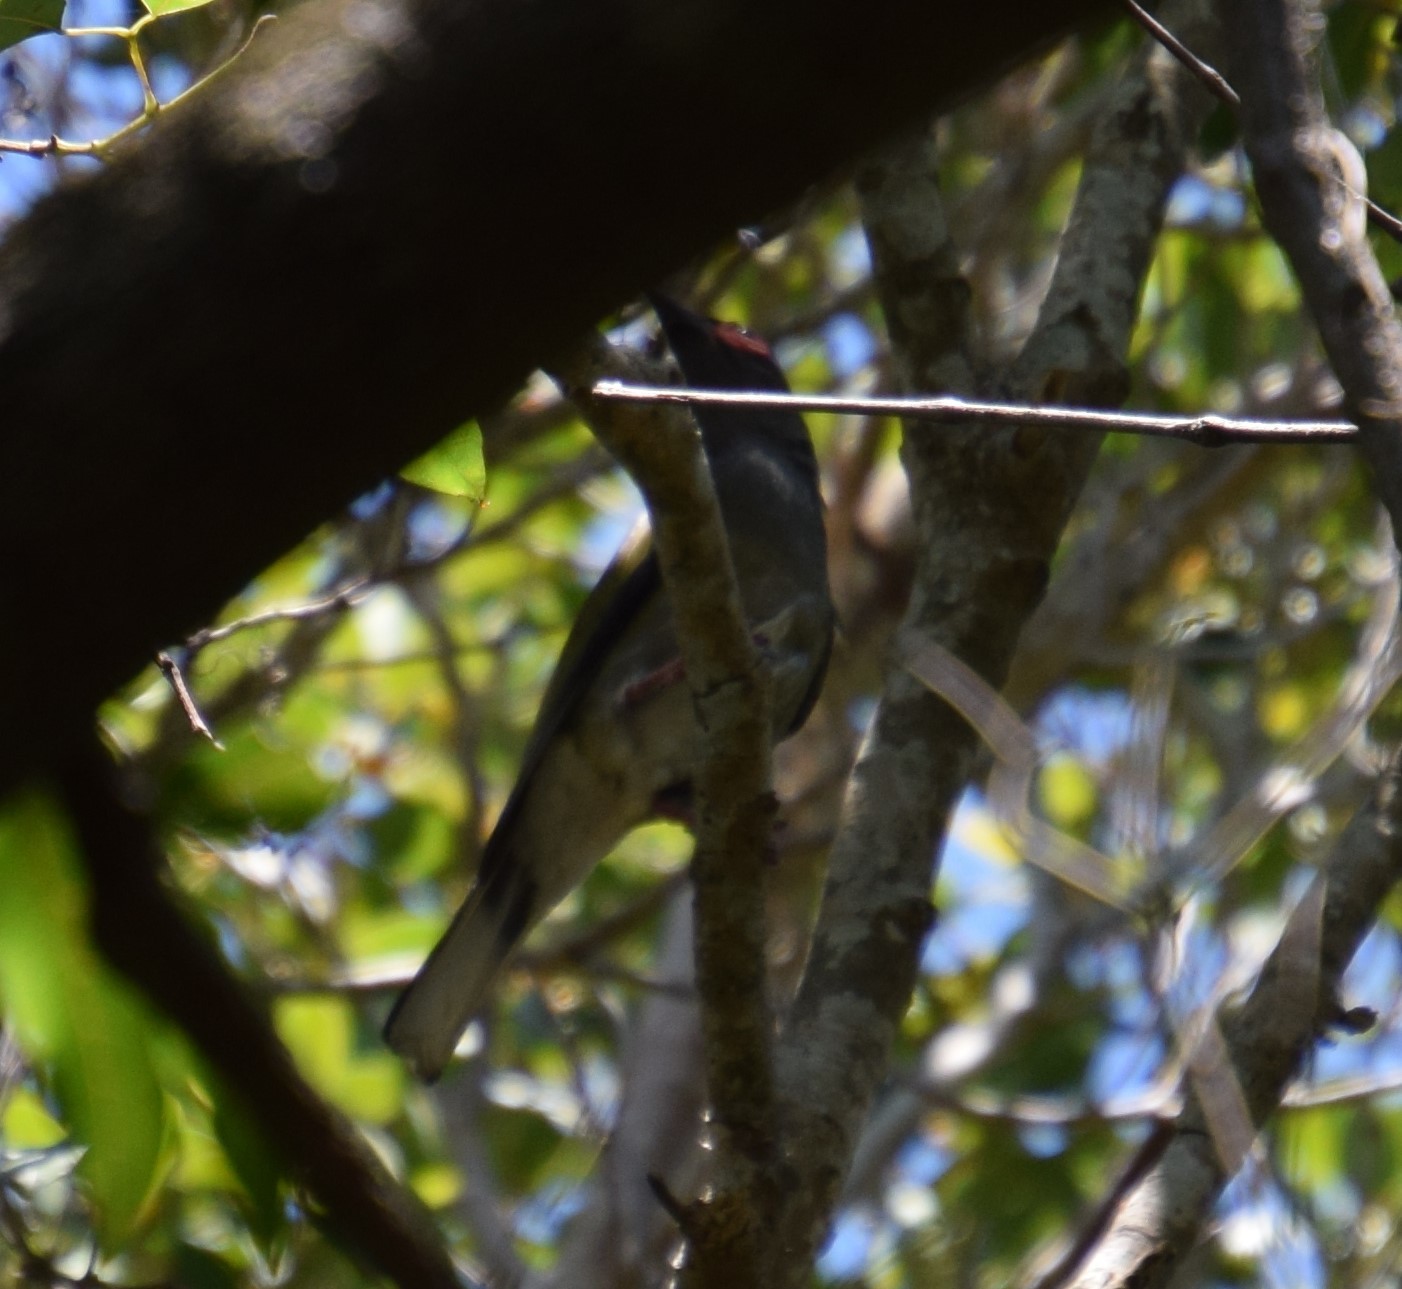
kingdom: Animalia
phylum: Chordata
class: Aves
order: Passeriformes
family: Oriolidae
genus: Sphecotheres
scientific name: Sphecotheres vieilloti
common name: Australasian figbird
